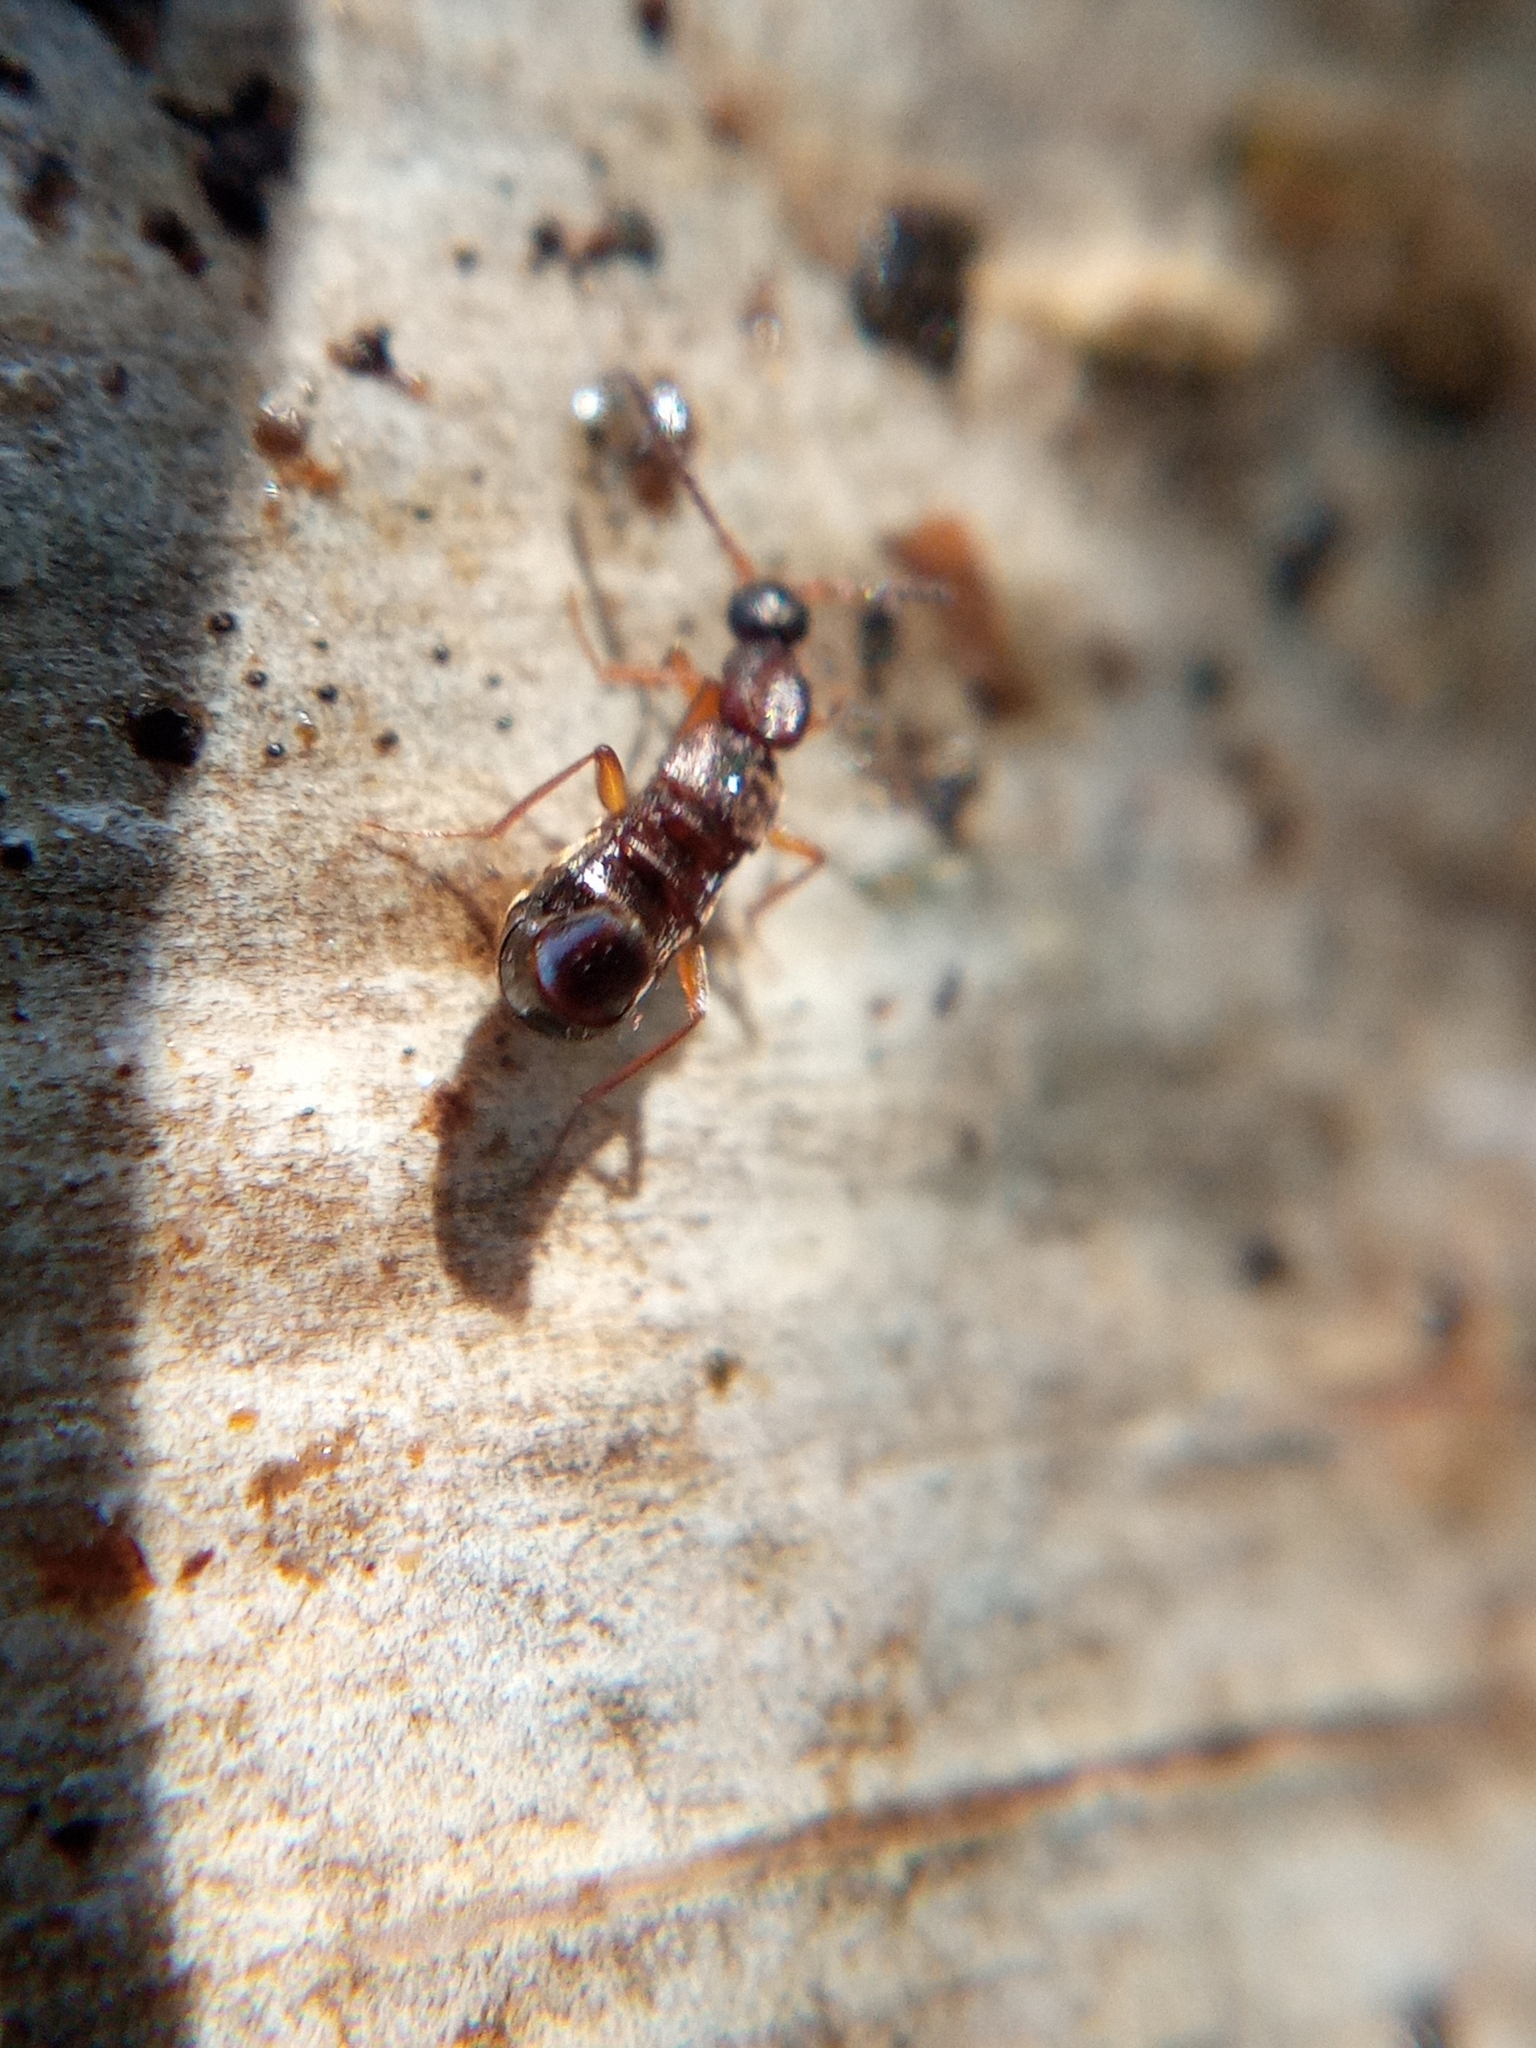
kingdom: Animalia
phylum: Arthropoda
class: Insecta
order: Coleoptera
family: Staphylinidae
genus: Drusilla
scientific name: Drusilla canaliculata
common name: Rove beetle
